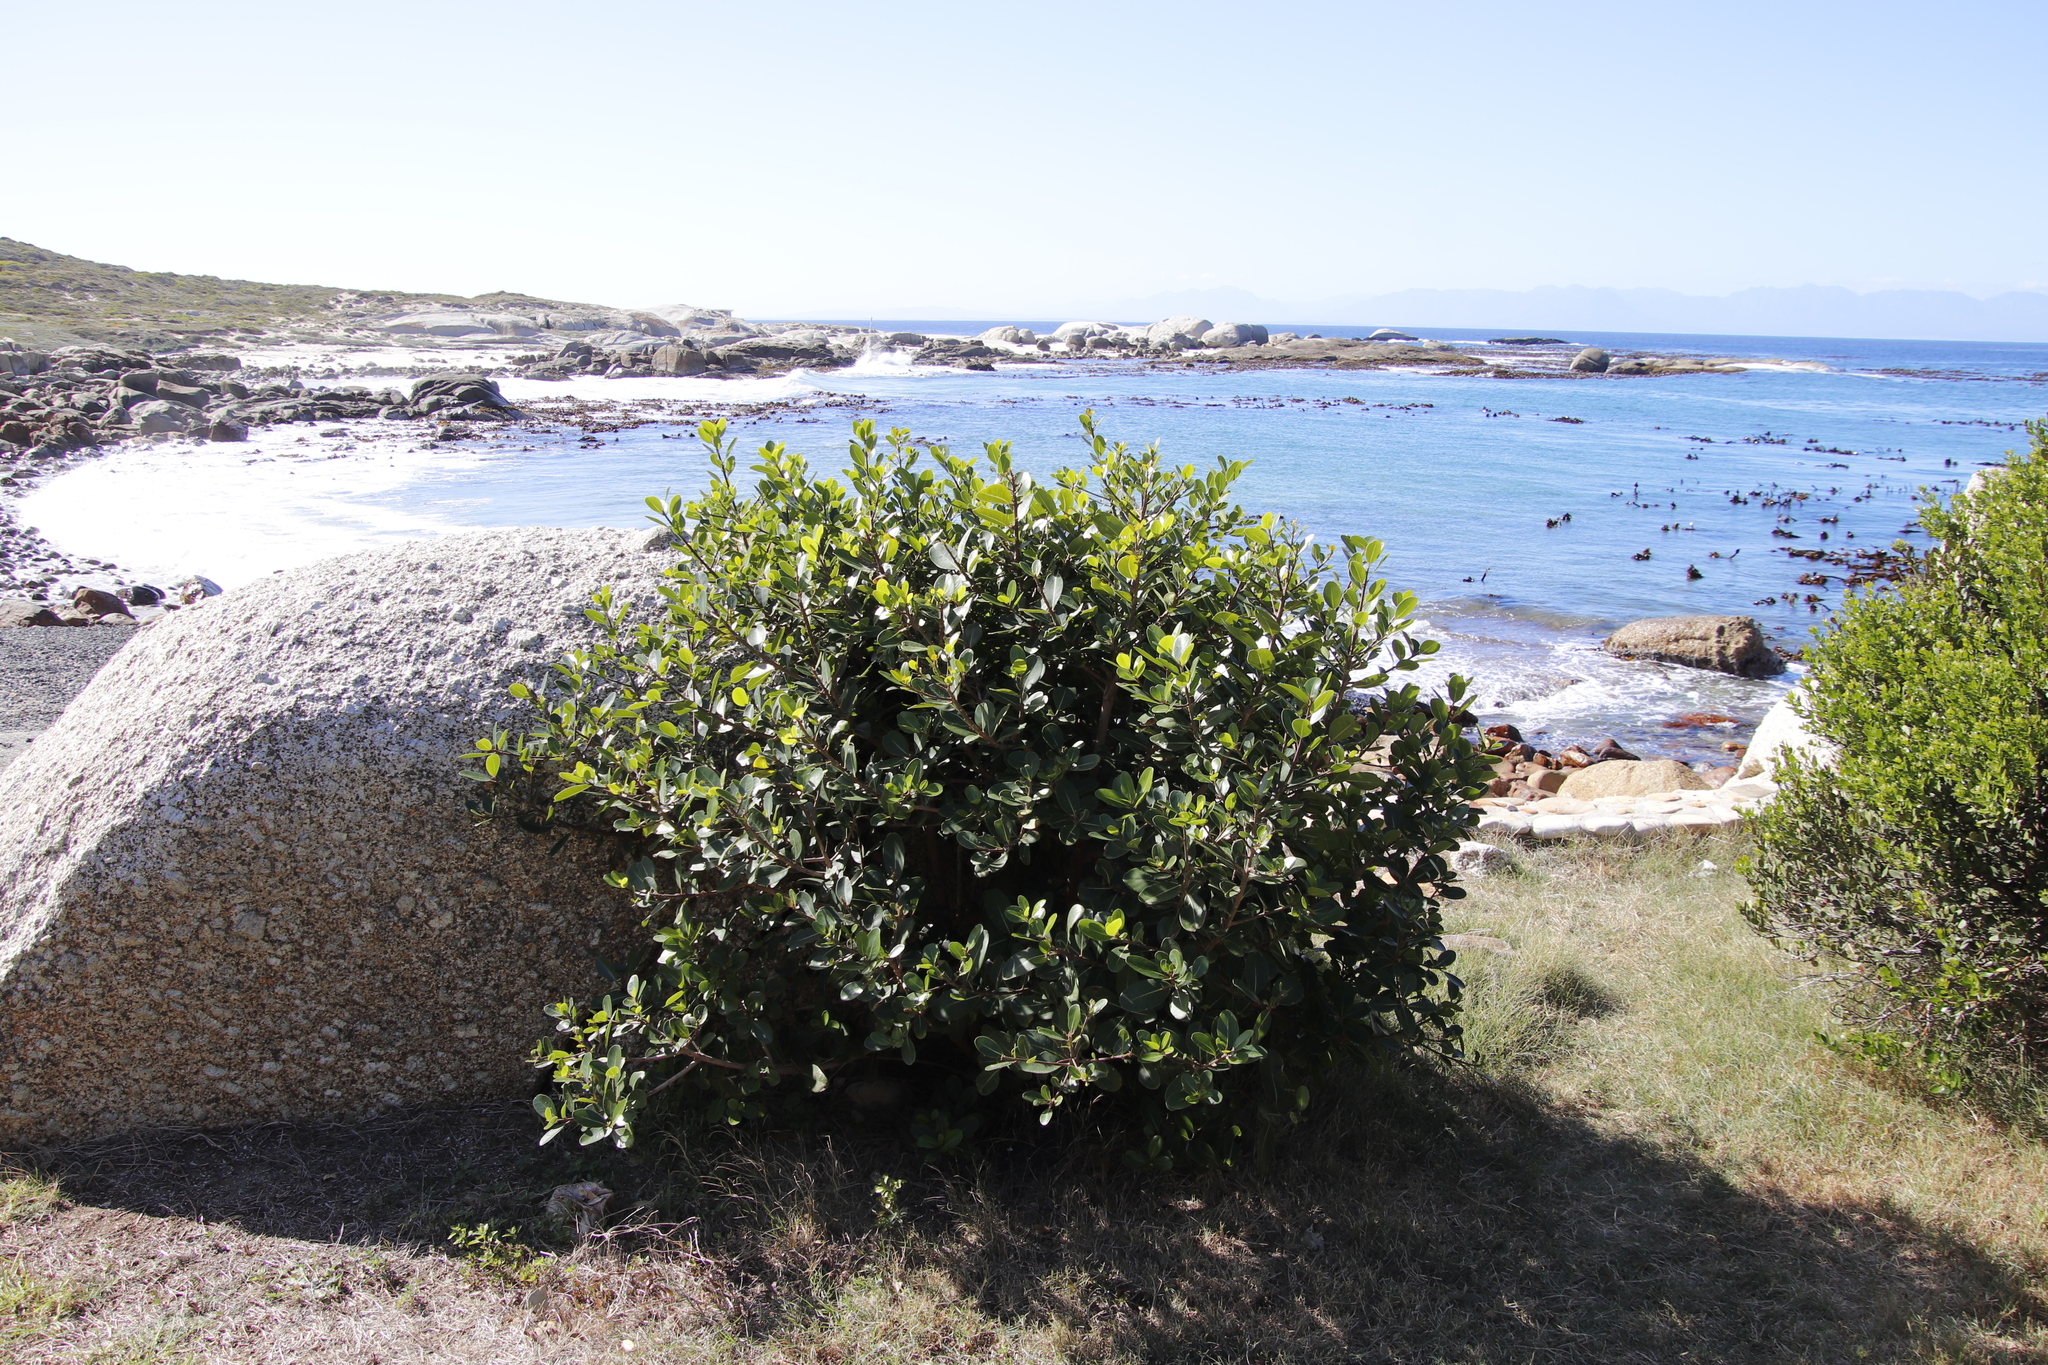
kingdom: Plantae
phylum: Tracheophyta
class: Magnoliopsida
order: Ericales
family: Sapotaceae
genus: Sideroxylon
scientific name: Sideroxylon inerme
